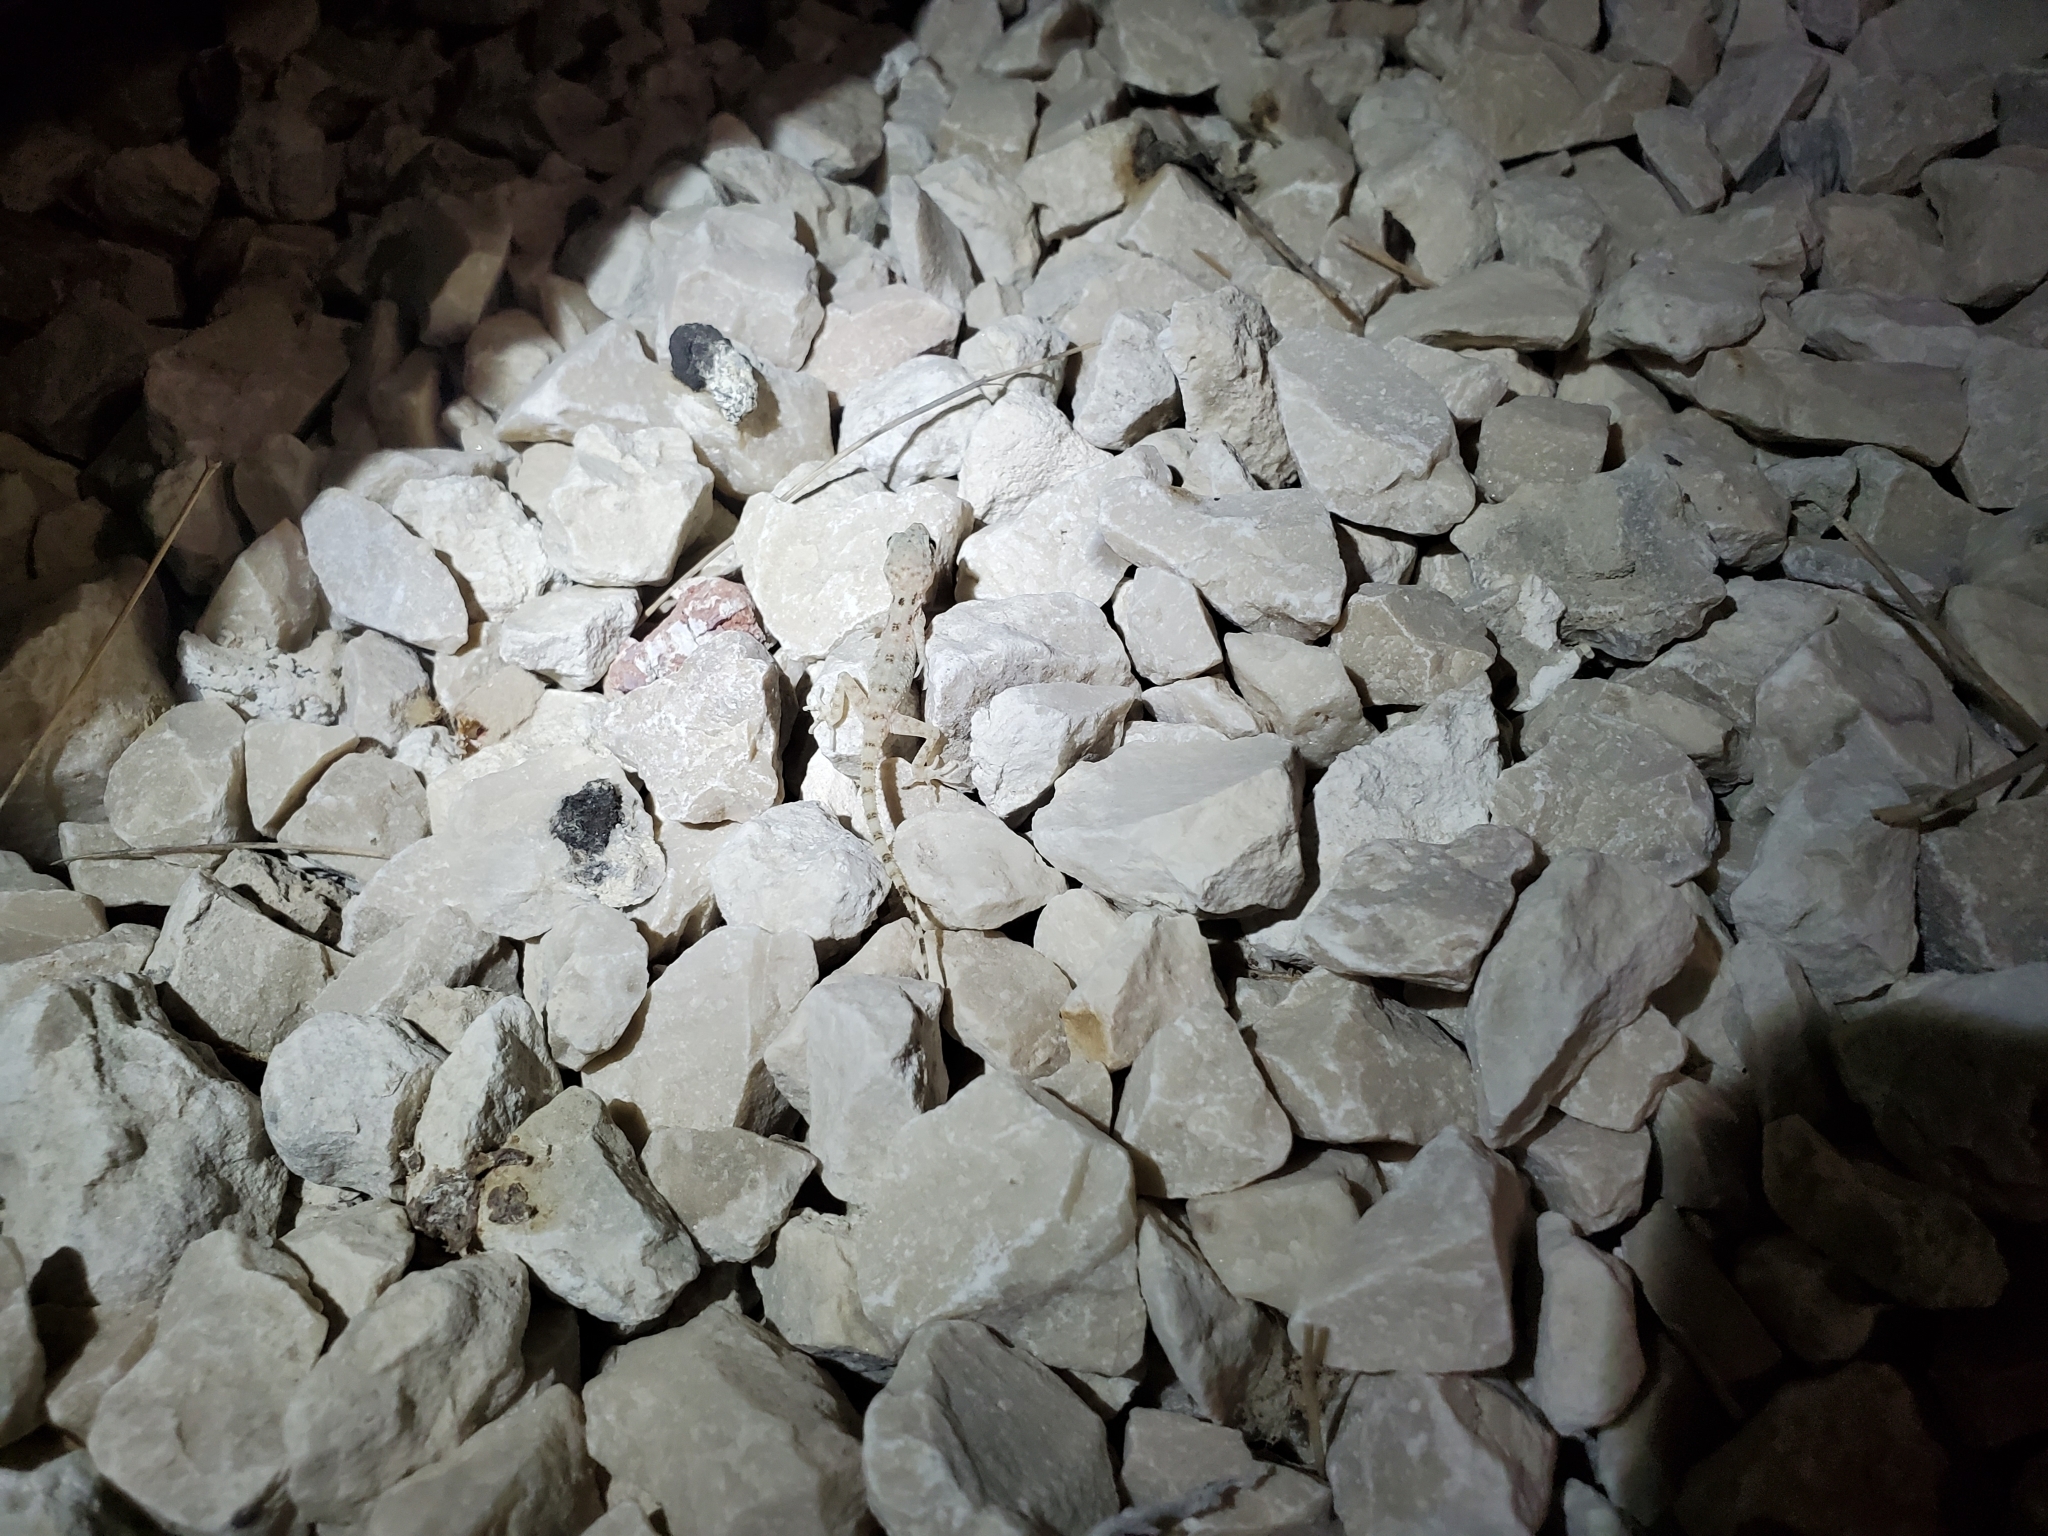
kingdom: Animalia
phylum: Chordata
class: Squamata
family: Gekkonidae
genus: Cyrtopodion
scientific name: Cyrtopodion scabrum
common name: Rough-tailed gecko
